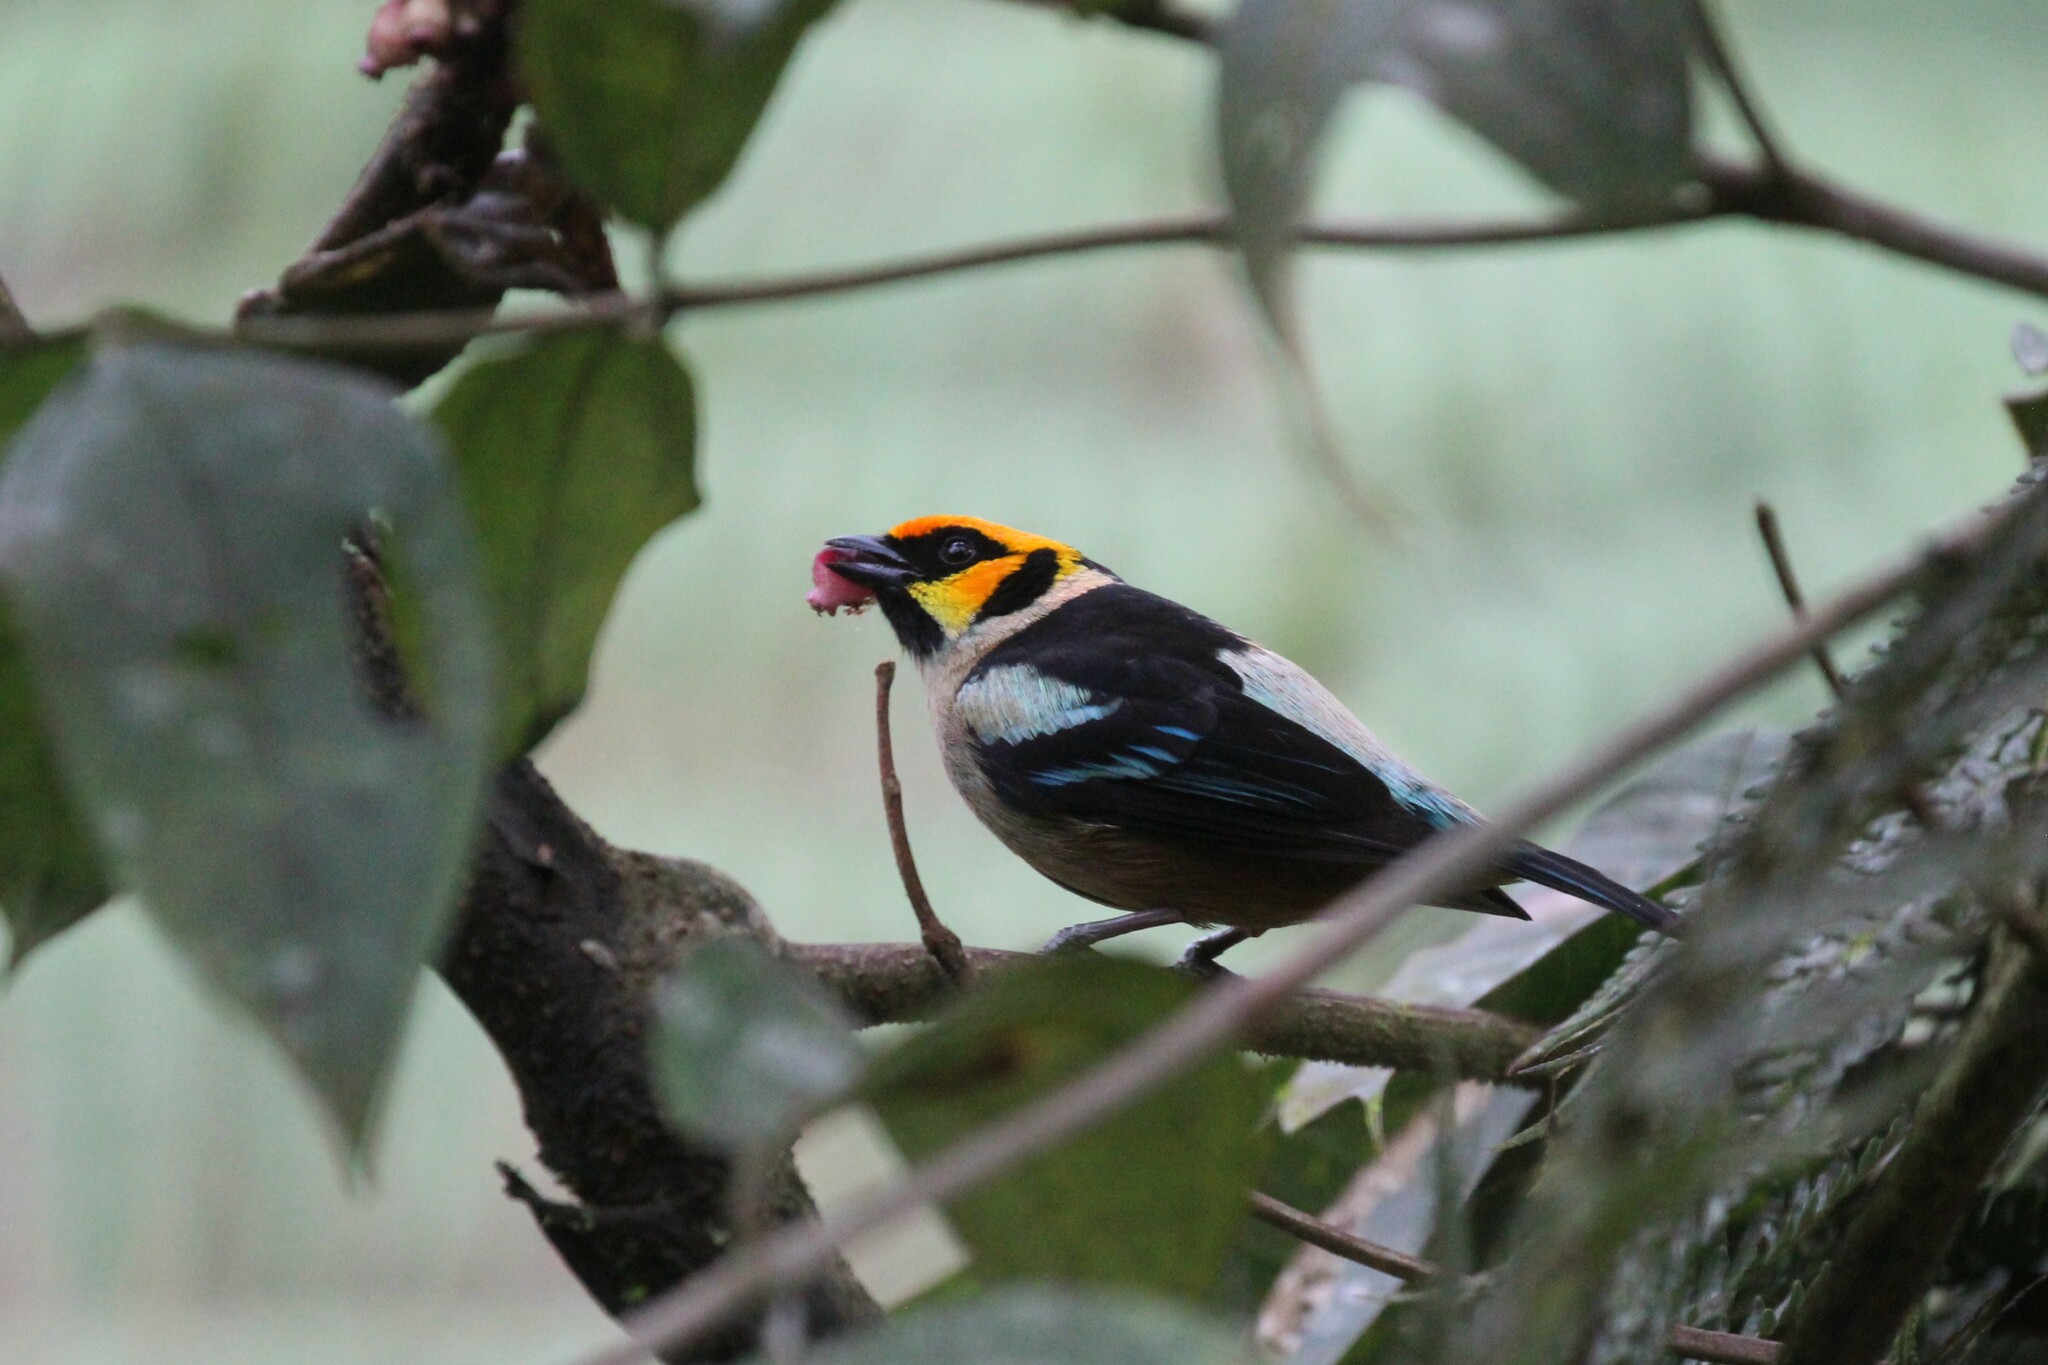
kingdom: Animalia
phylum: Chordata
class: Aves
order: Passeriformes
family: Thraupidae
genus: Tangara
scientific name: Tangara parzudakii
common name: Flame-faced tanager
